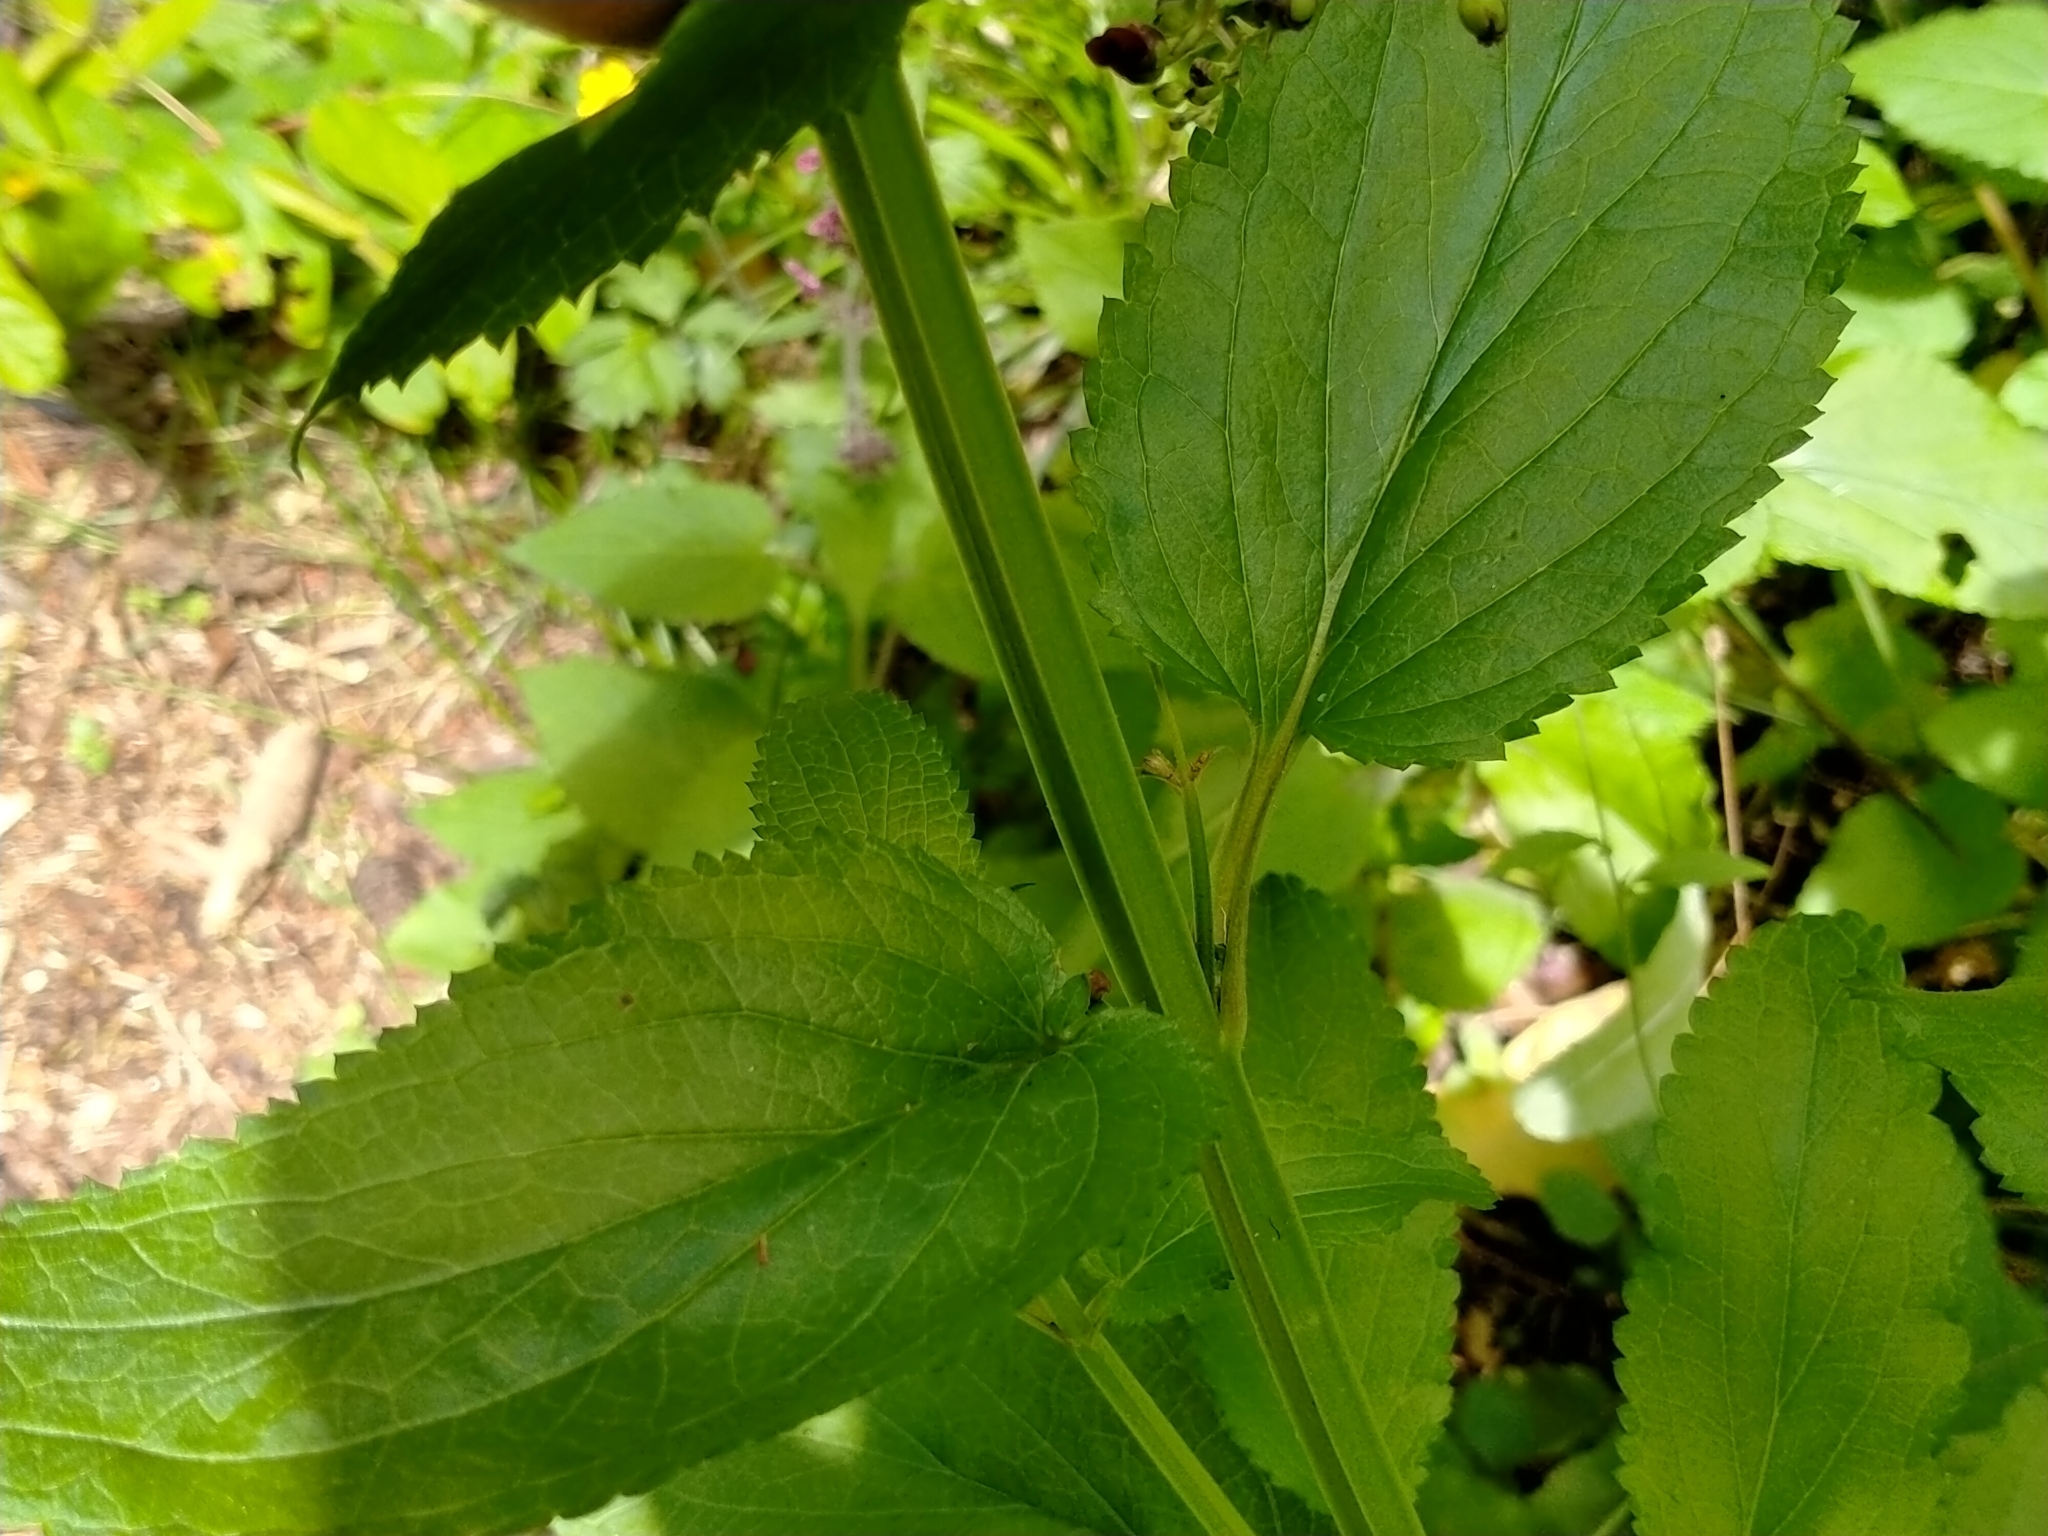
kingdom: Plantae
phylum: Tracheophyta
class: Magnoliopsida
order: Lamiales
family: Scrophulariaceae
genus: Scrophularia
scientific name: Scrophularia auriculata
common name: Water betony
